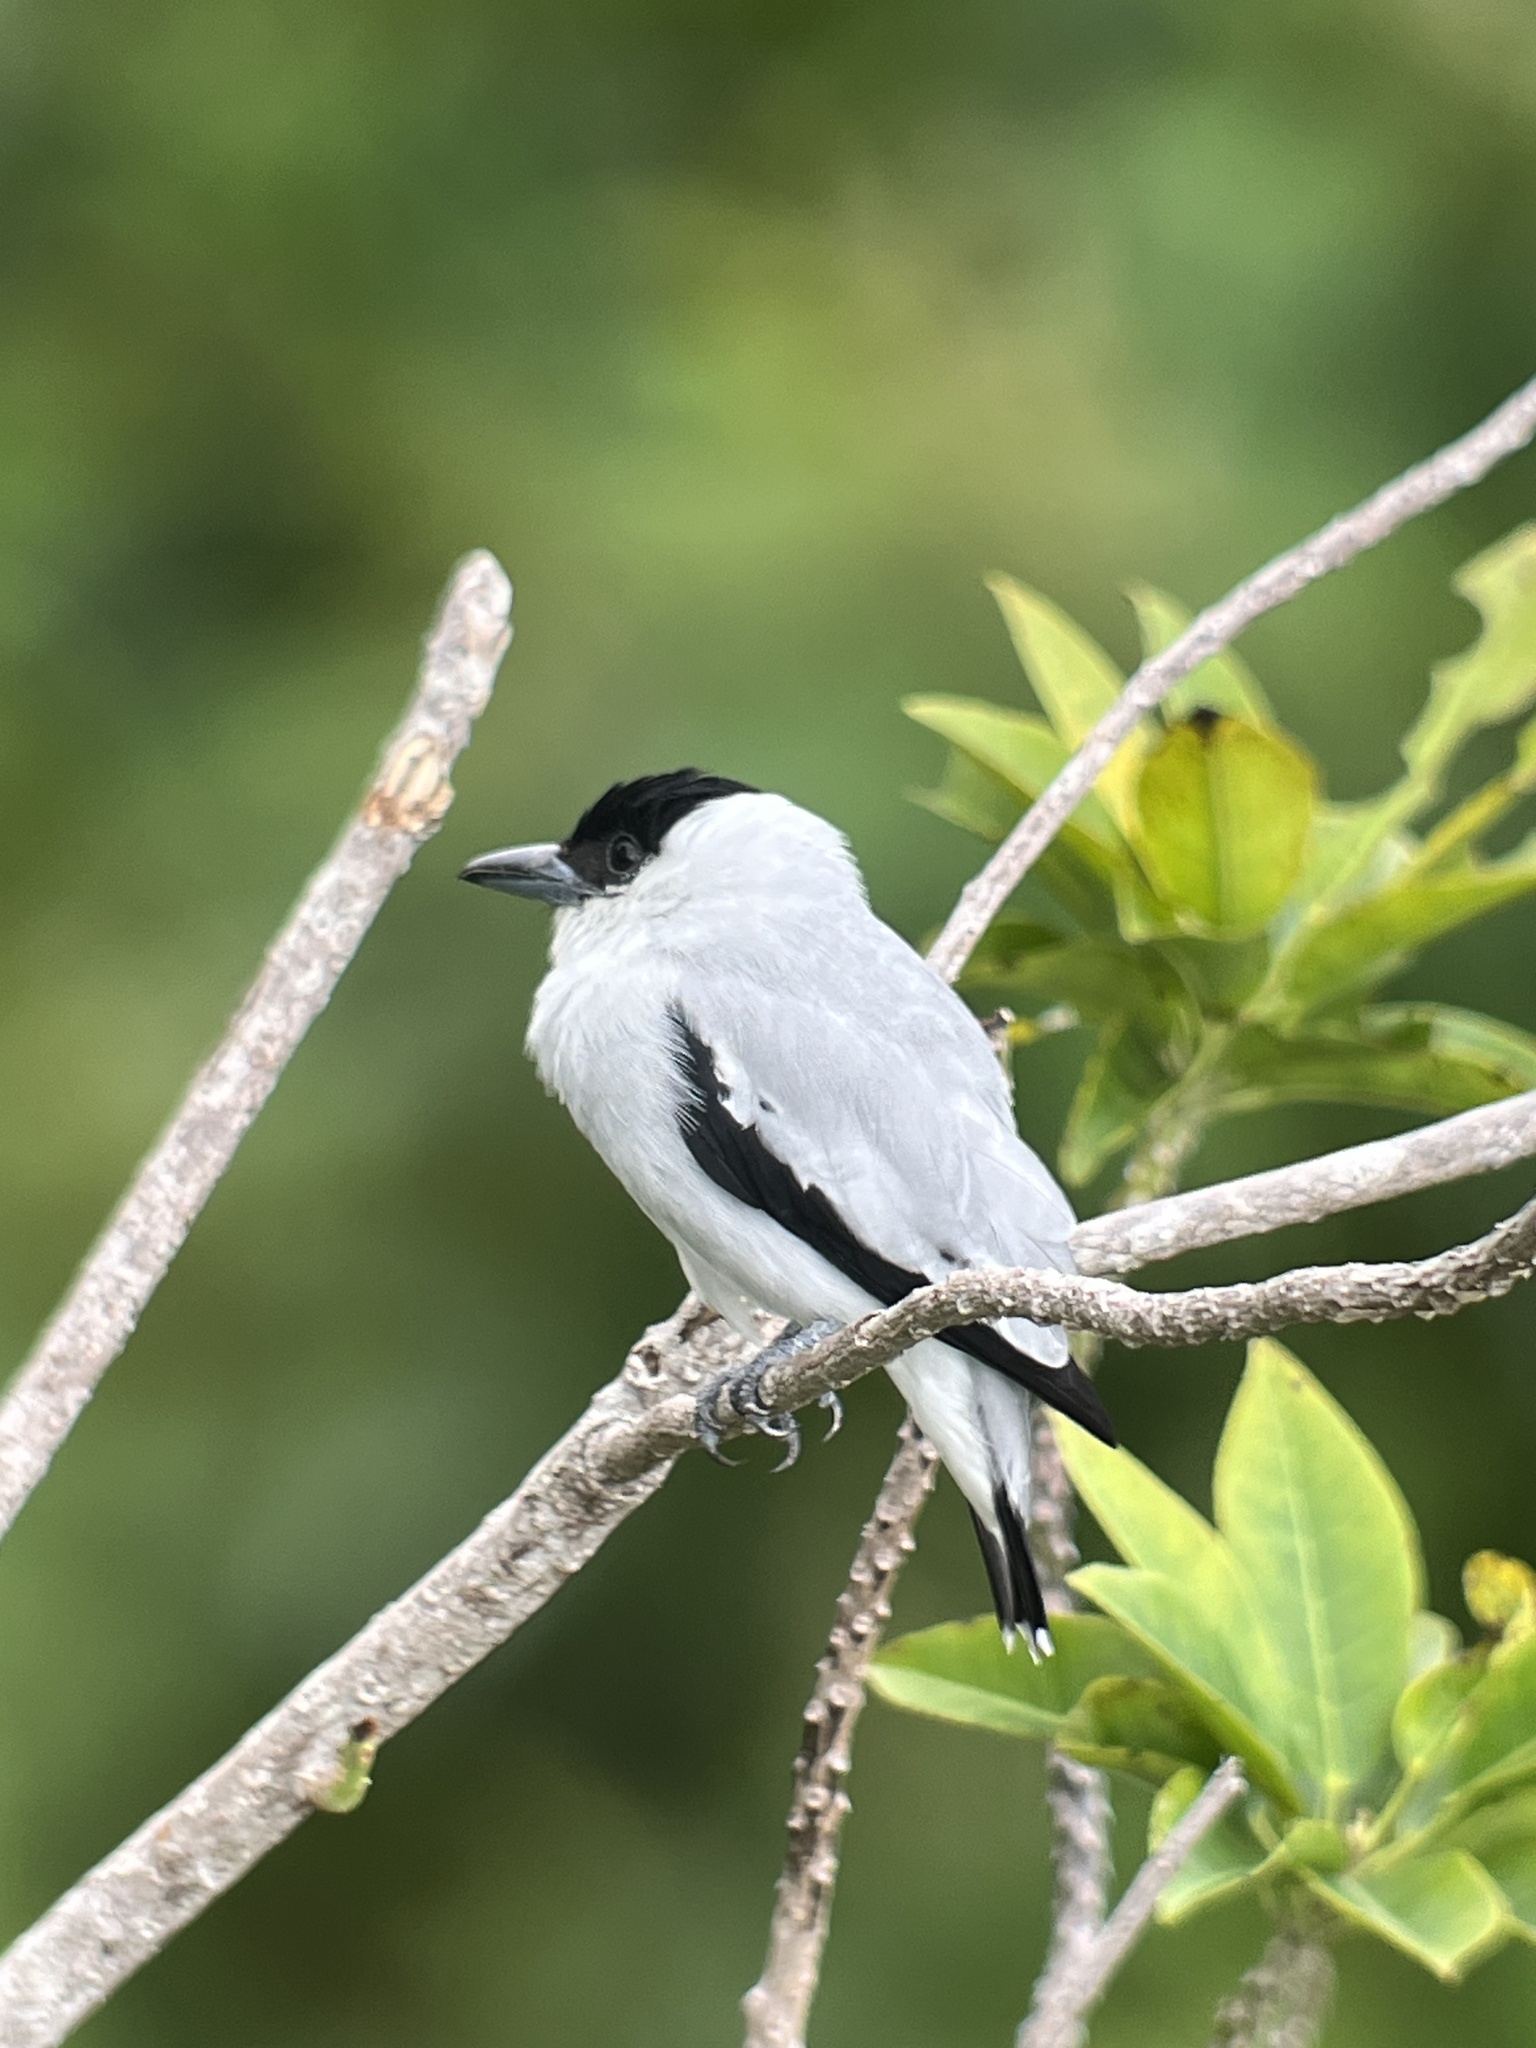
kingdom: Animalia
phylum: Chordata
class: Aves
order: Passeriformes
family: Cotingidae
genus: Tityra
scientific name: Tityra inquisitor
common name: Black-crowned tityra
